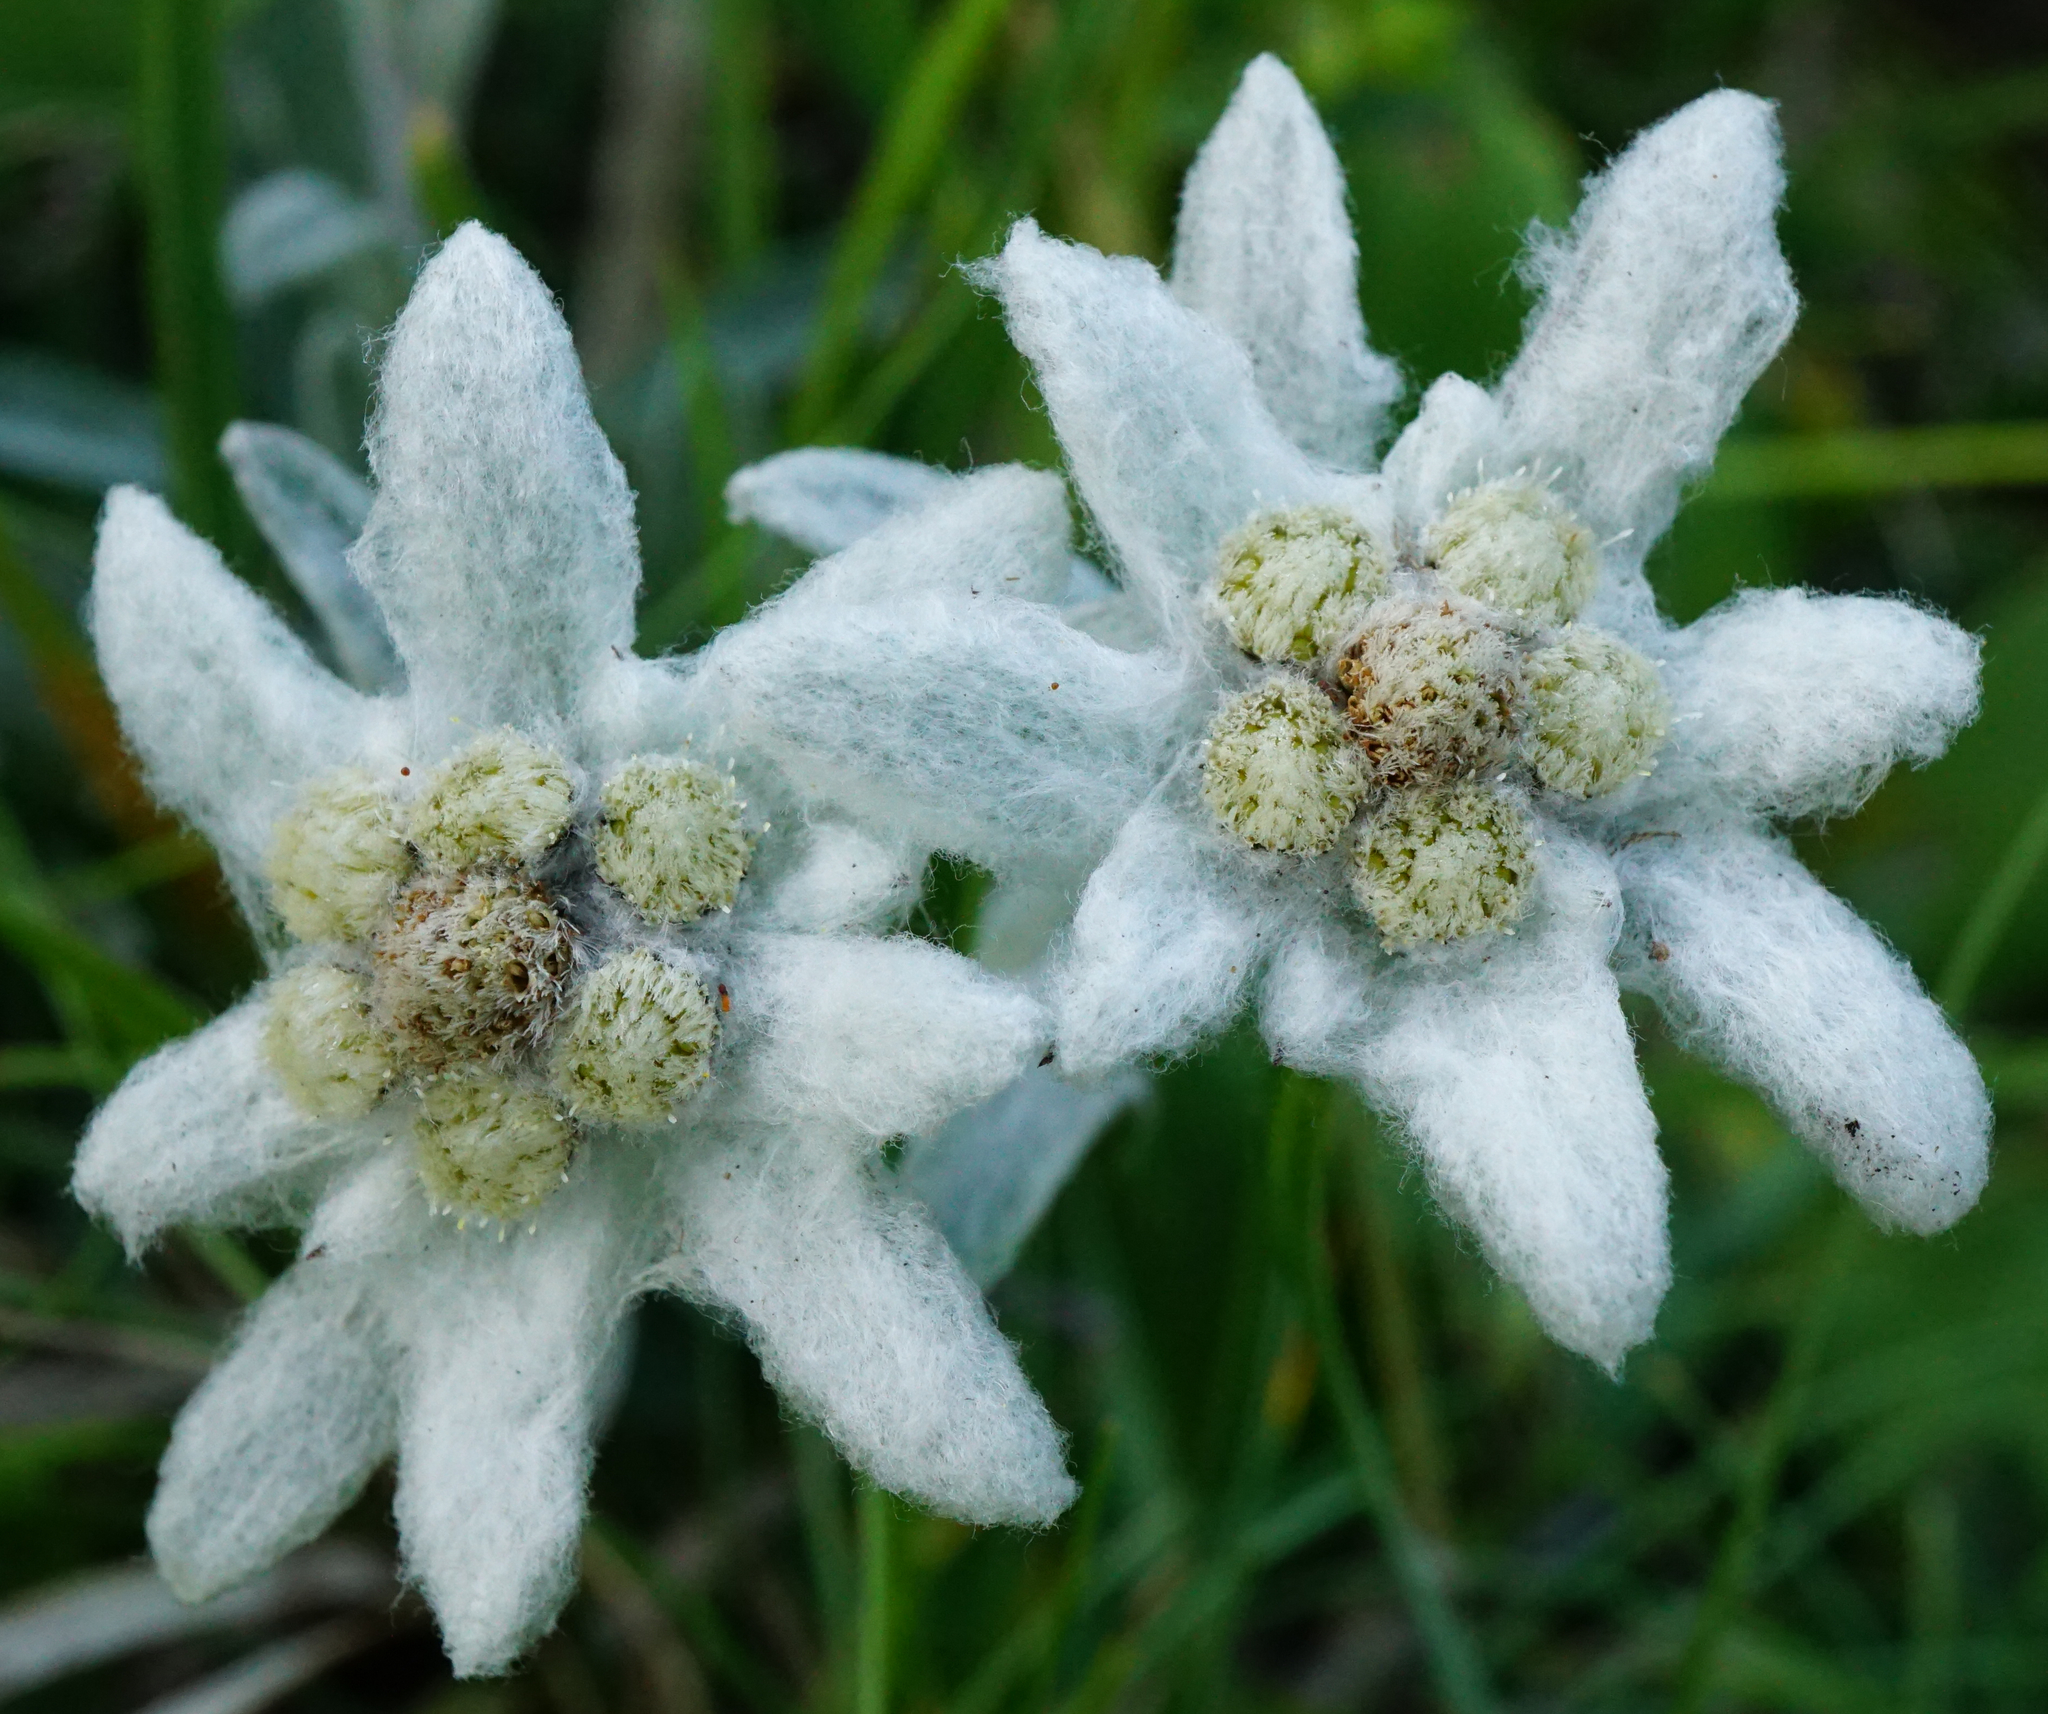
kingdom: Plantae
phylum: Tracheophyta
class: Magnoliopsida
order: Asterales
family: Asteraceae
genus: Leontopodium
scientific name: Leontopodium nivale
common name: Edelweiss
